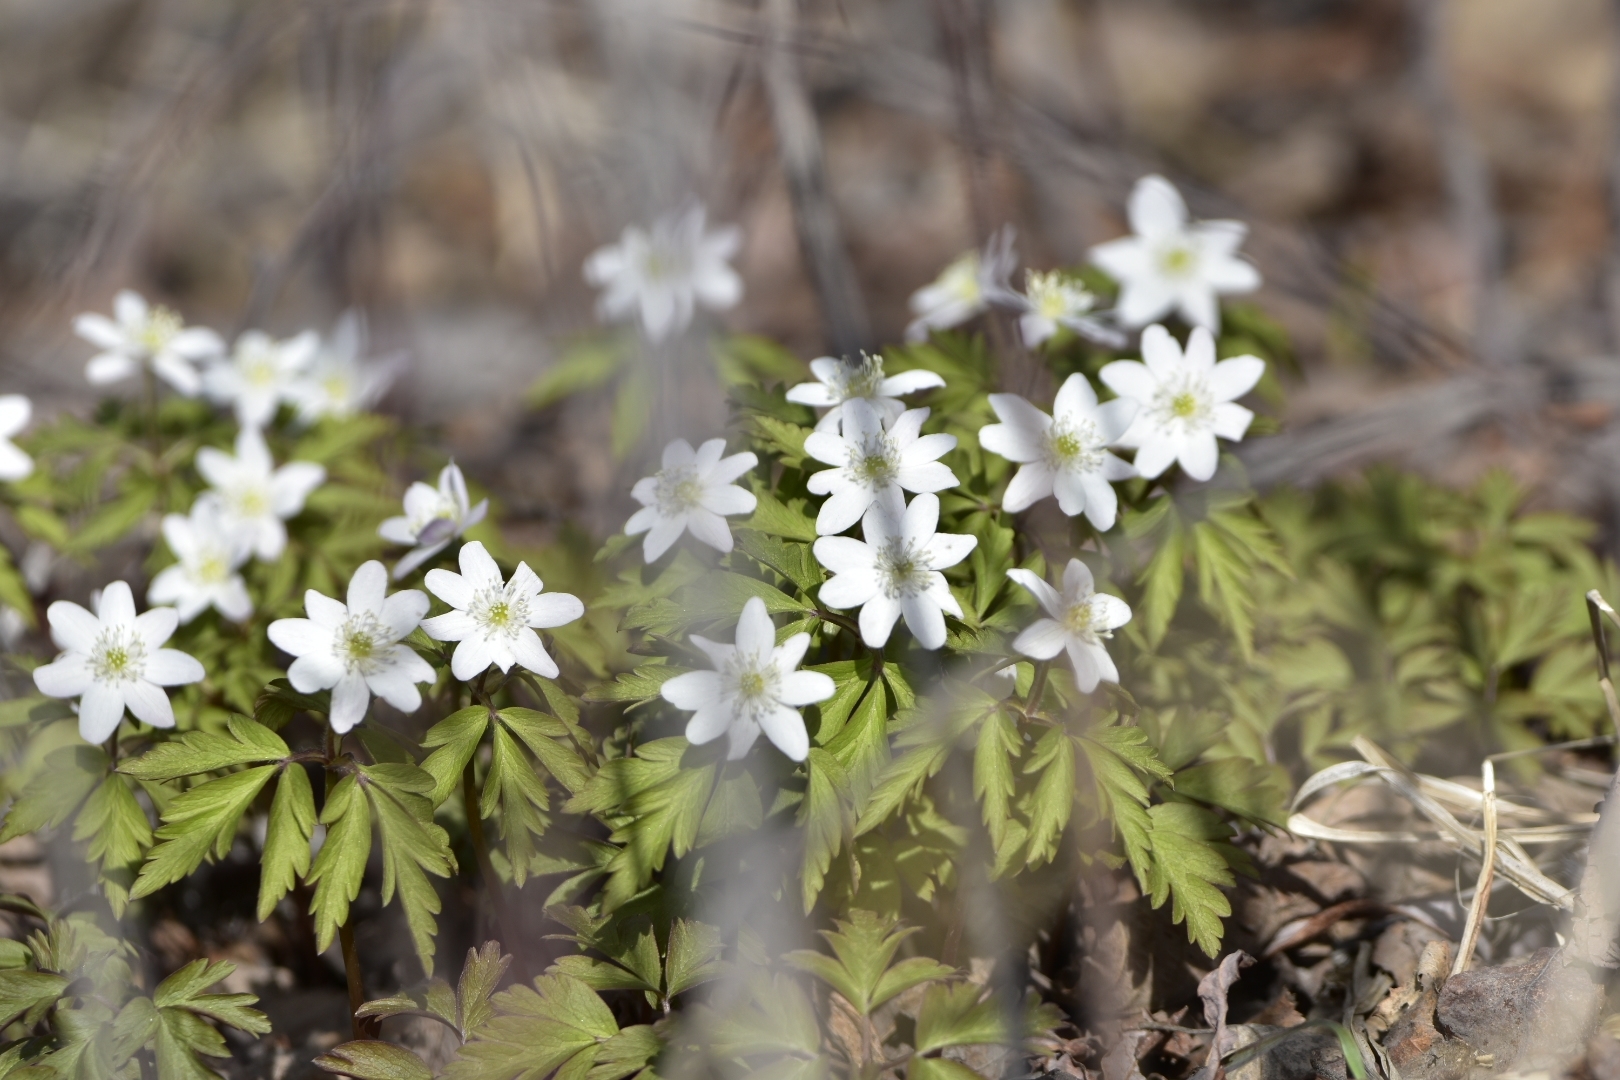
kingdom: Plantae
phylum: Tracheophyta
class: Magnoliopsida
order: Ranunculales
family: Ranunculaceae
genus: Anemone
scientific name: Anemone amurensis
